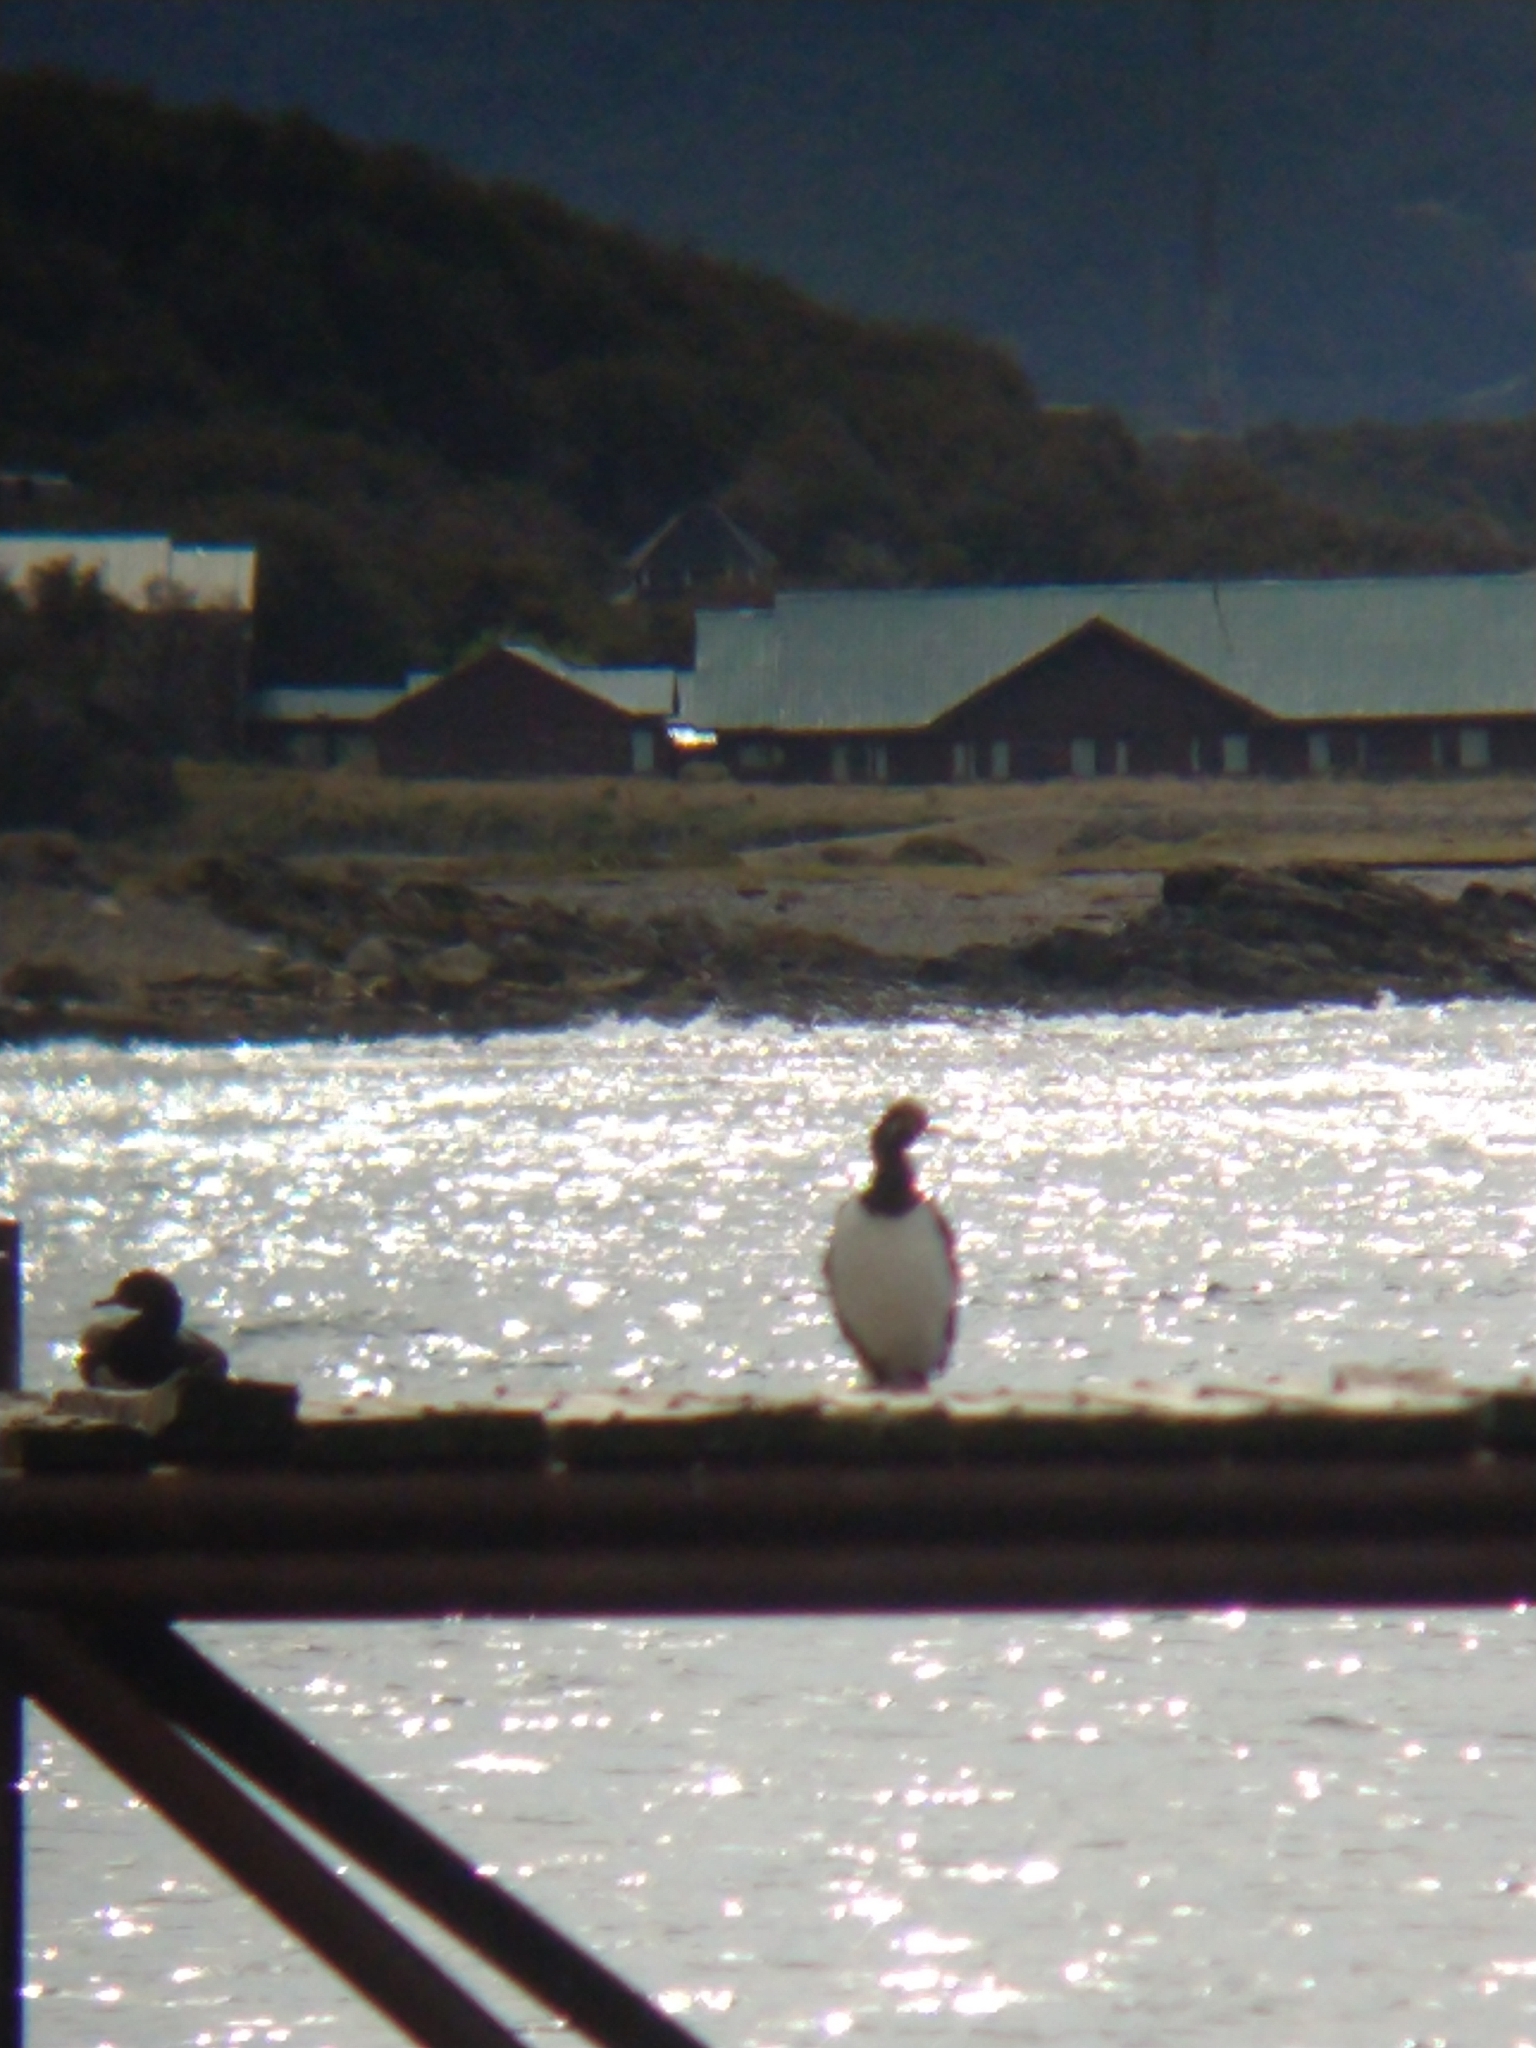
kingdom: Animalia
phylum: Chordata
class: Aves
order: Suliformes
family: Phalacrocoracidae
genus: Phalacrocorax
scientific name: Phalacrocorax magellanicus
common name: Rock shag
